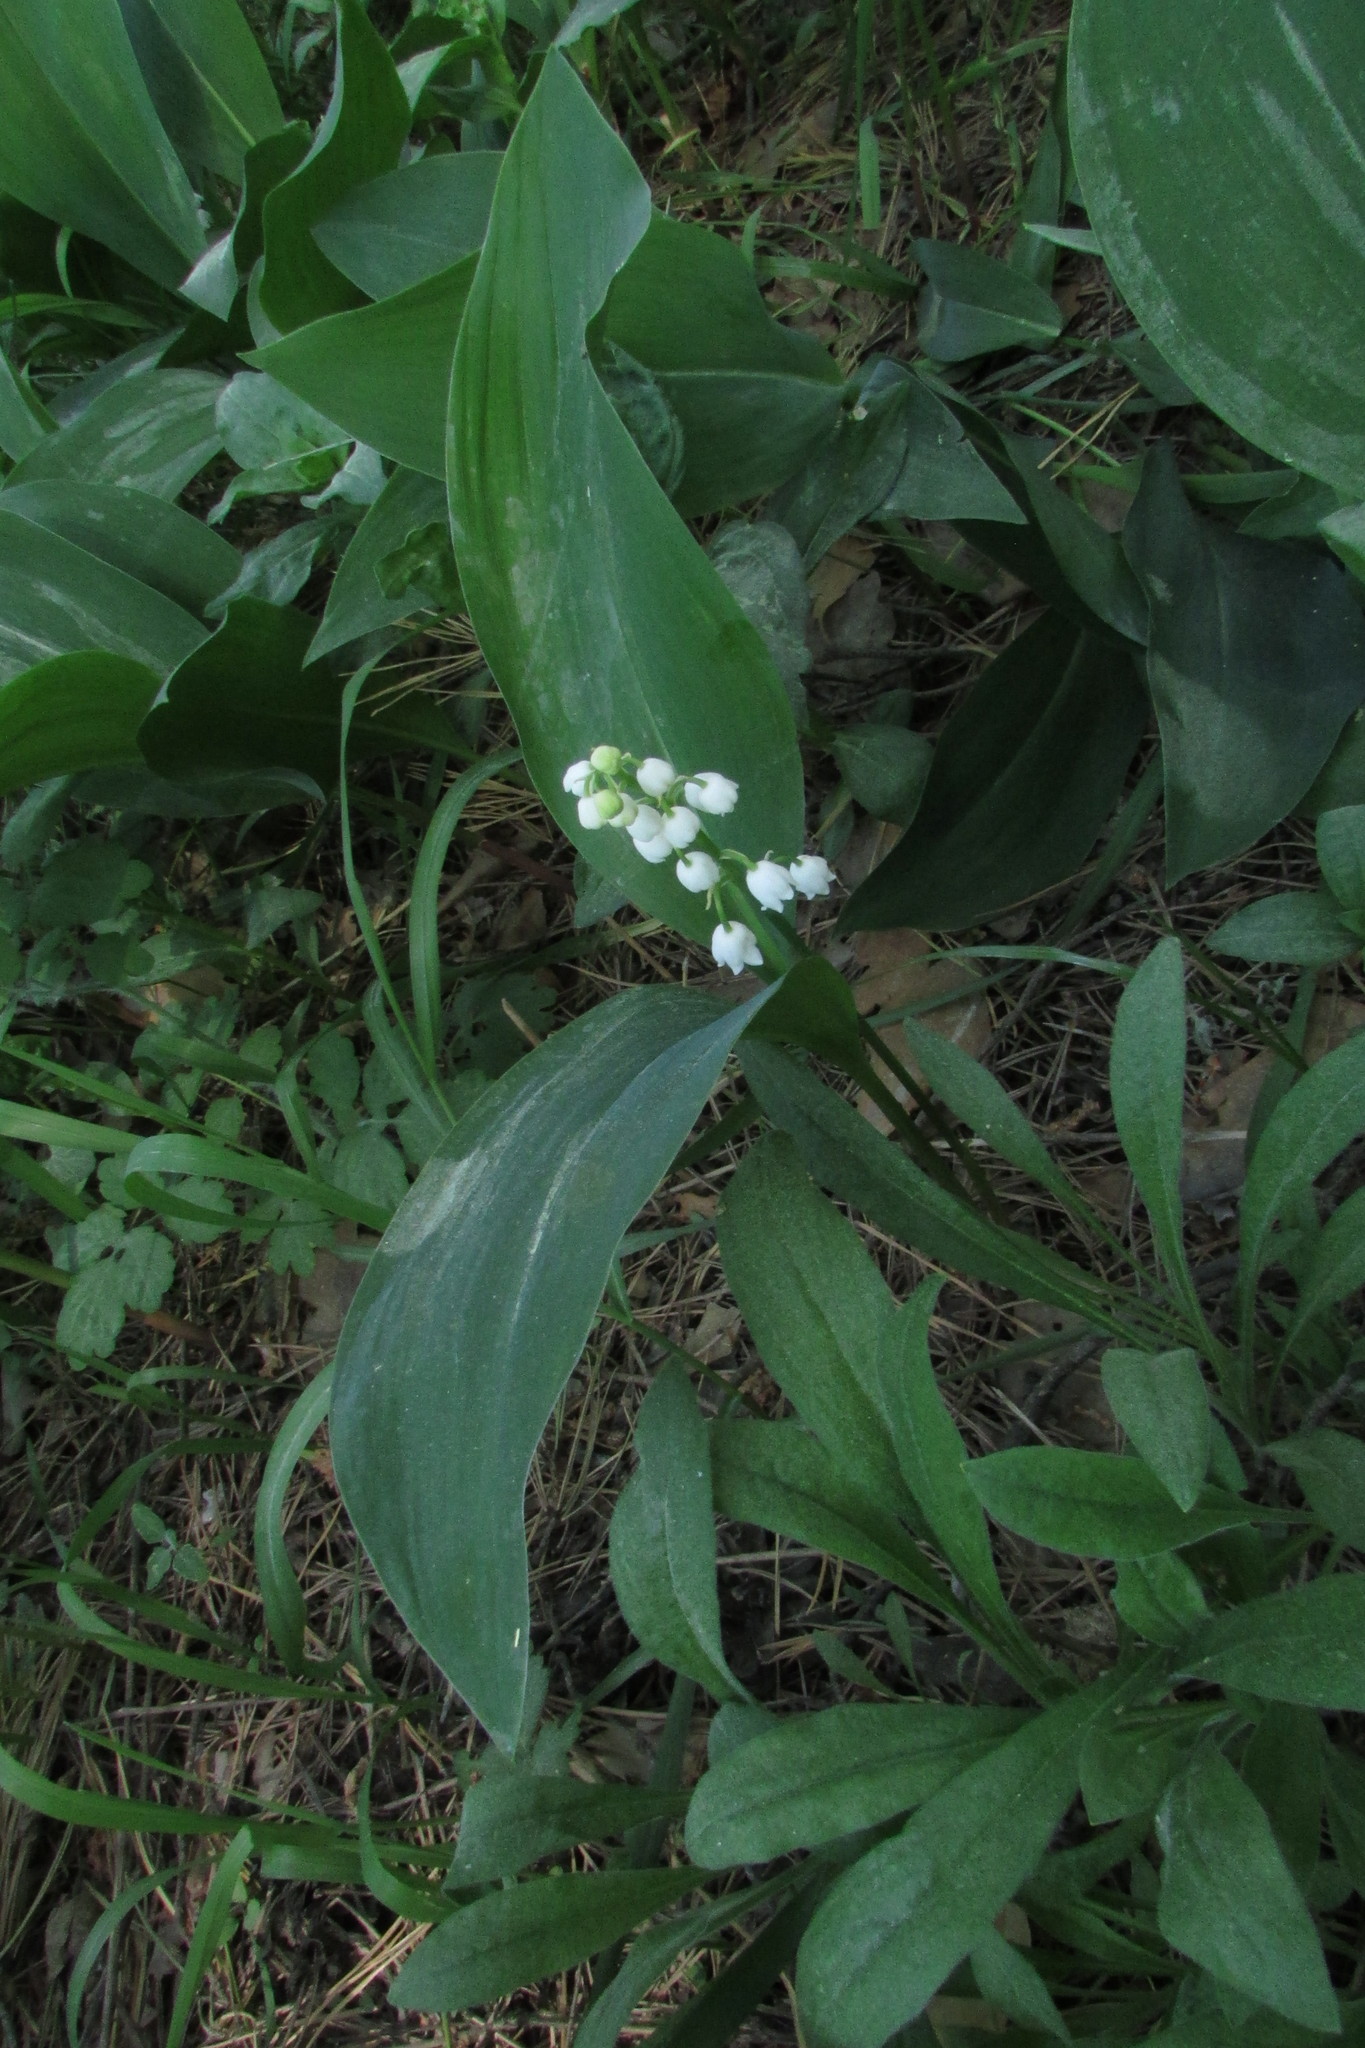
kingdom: Plantae
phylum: Tracheophyta
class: Liliopsida
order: Asparagales
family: Asparagaceae
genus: Convallaria
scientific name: Convallaria majalis
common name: Lily-of-the-valley
